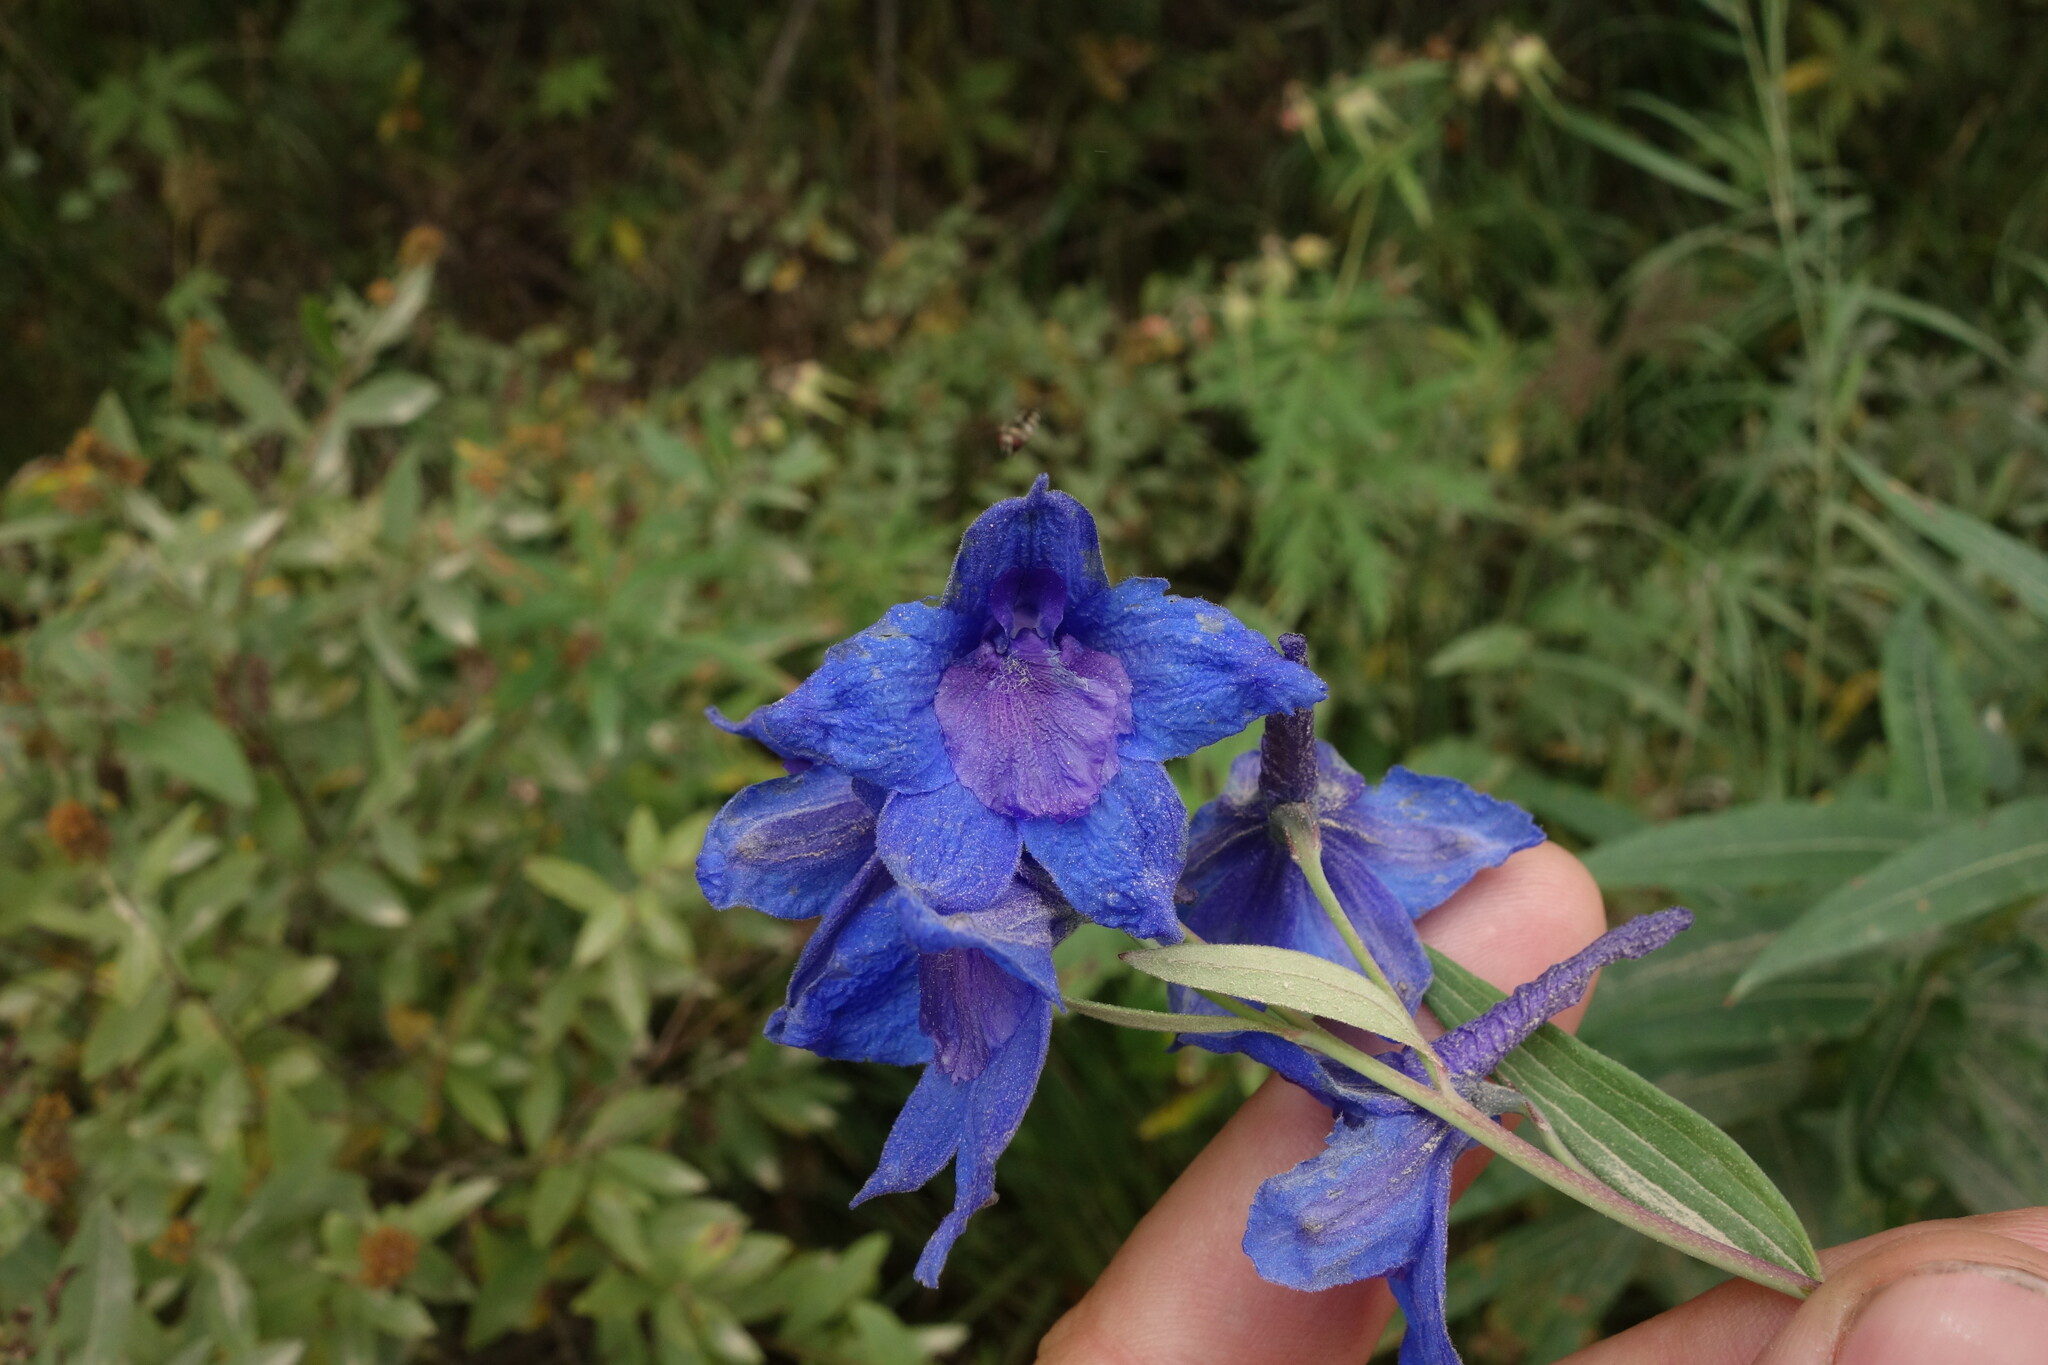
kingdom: Plantae
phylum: Tracheophyta
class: Magnoliopsida
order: Ranunculales
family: Ranunculaceae
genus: Delphinium
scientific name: Delphinium cheilanthum
